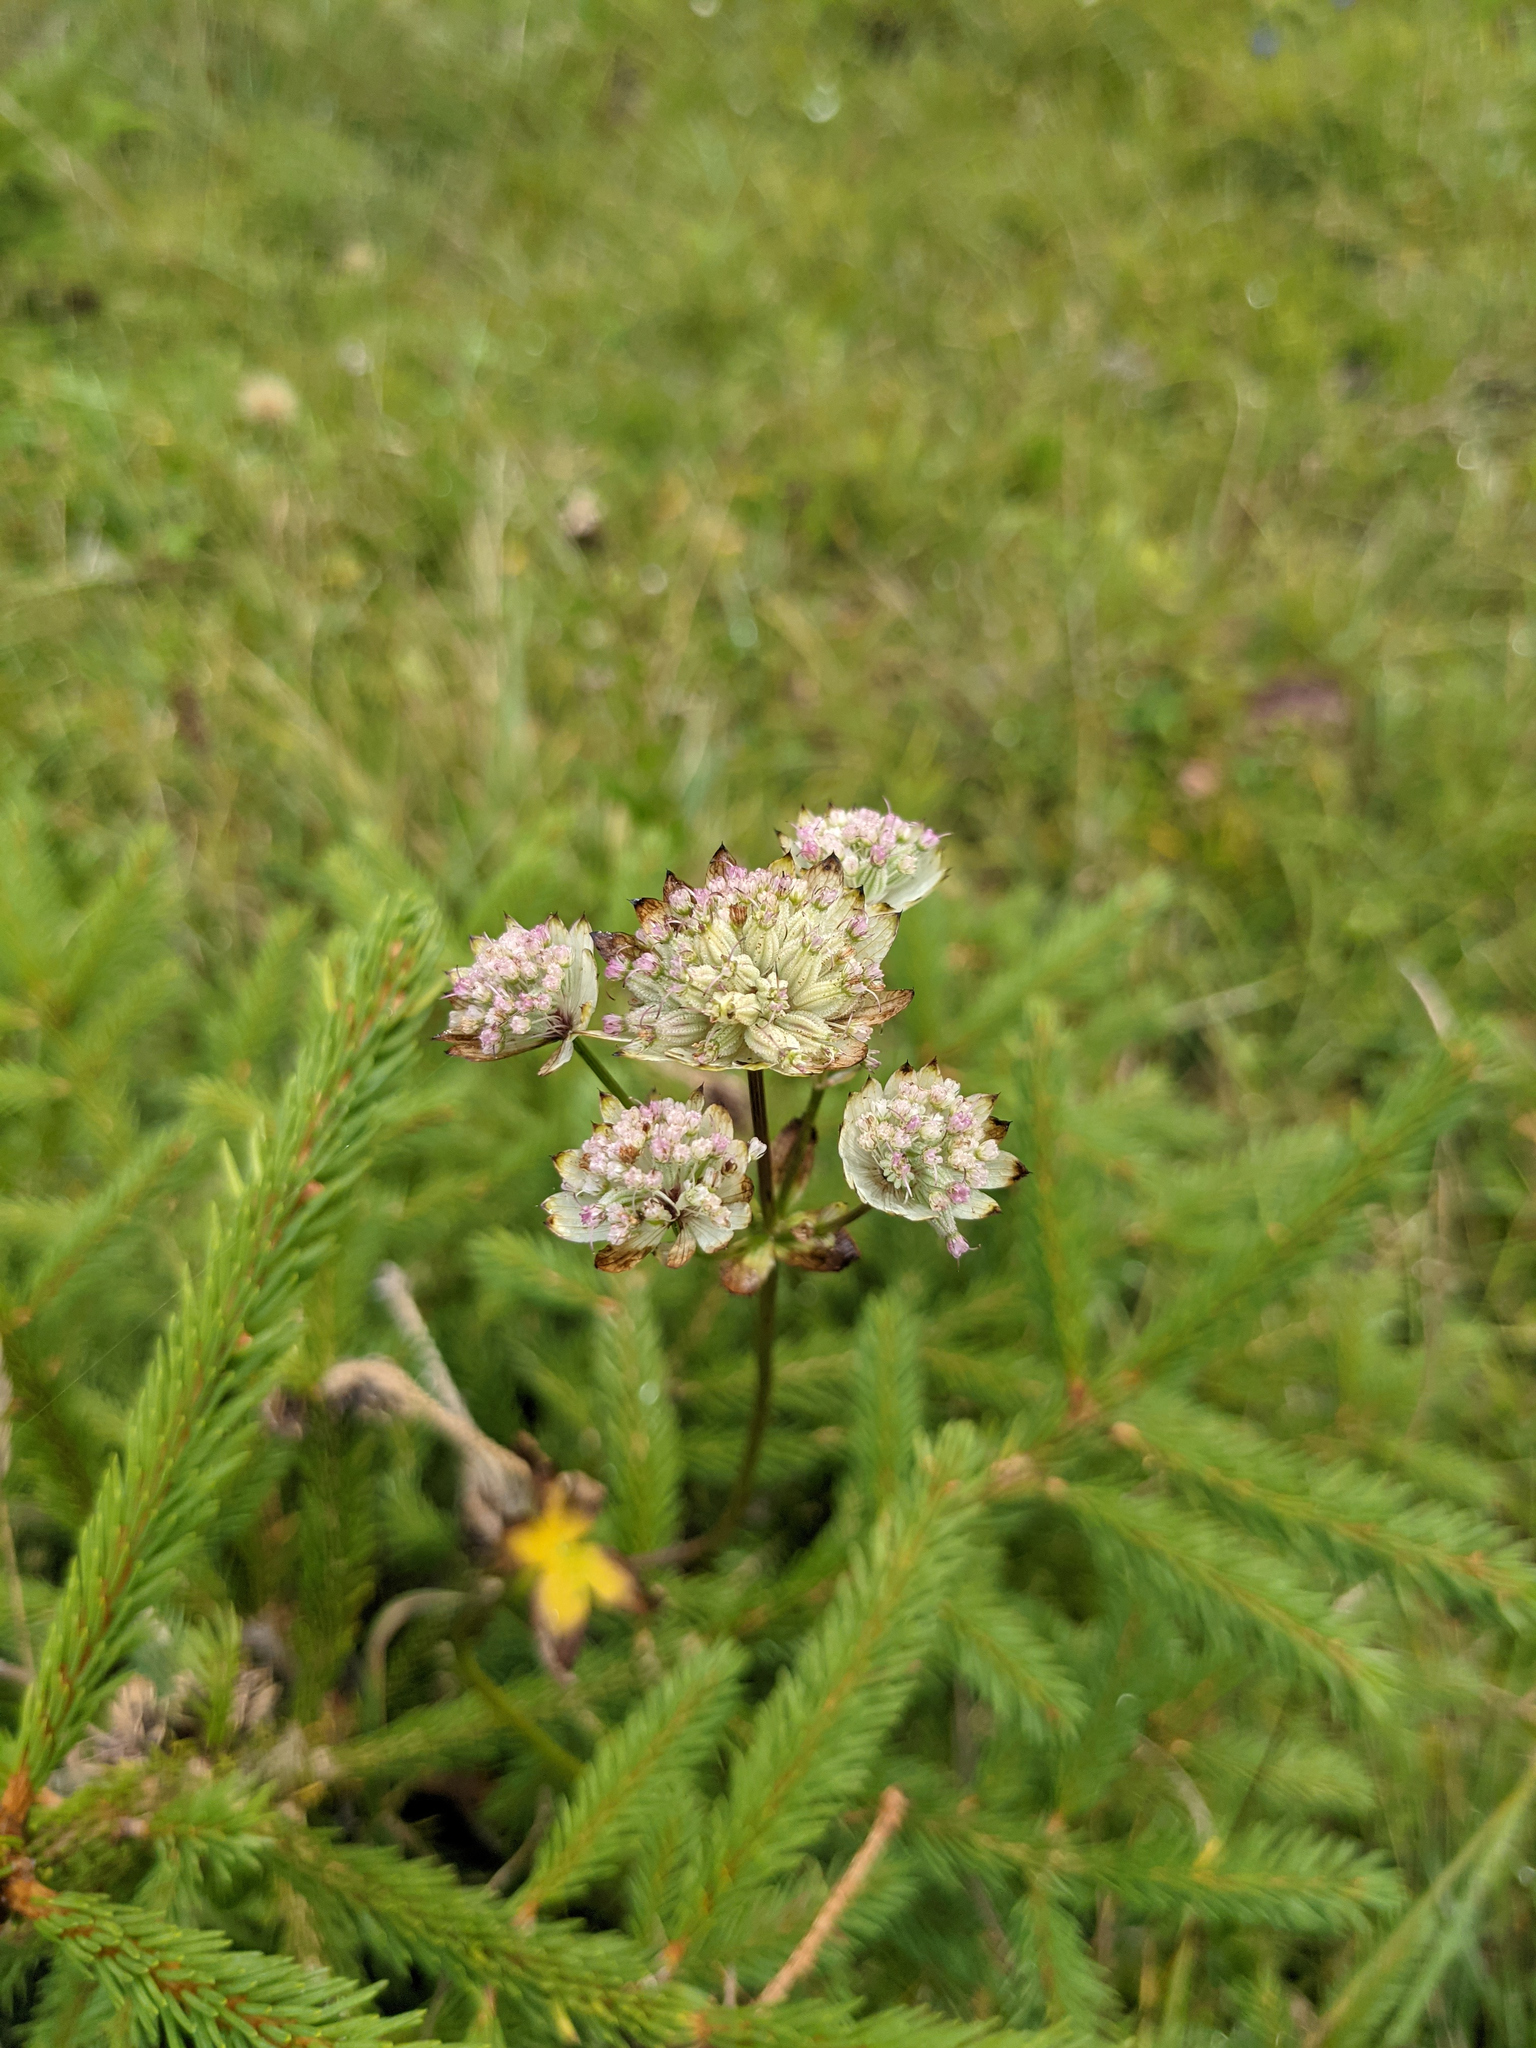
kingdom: Plantae
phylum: Tracheophyta
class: Magnoliopsida
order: Apiales
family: Apiaceae
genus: Astrantia
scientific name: Astrantia major
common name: Greater masterwort
